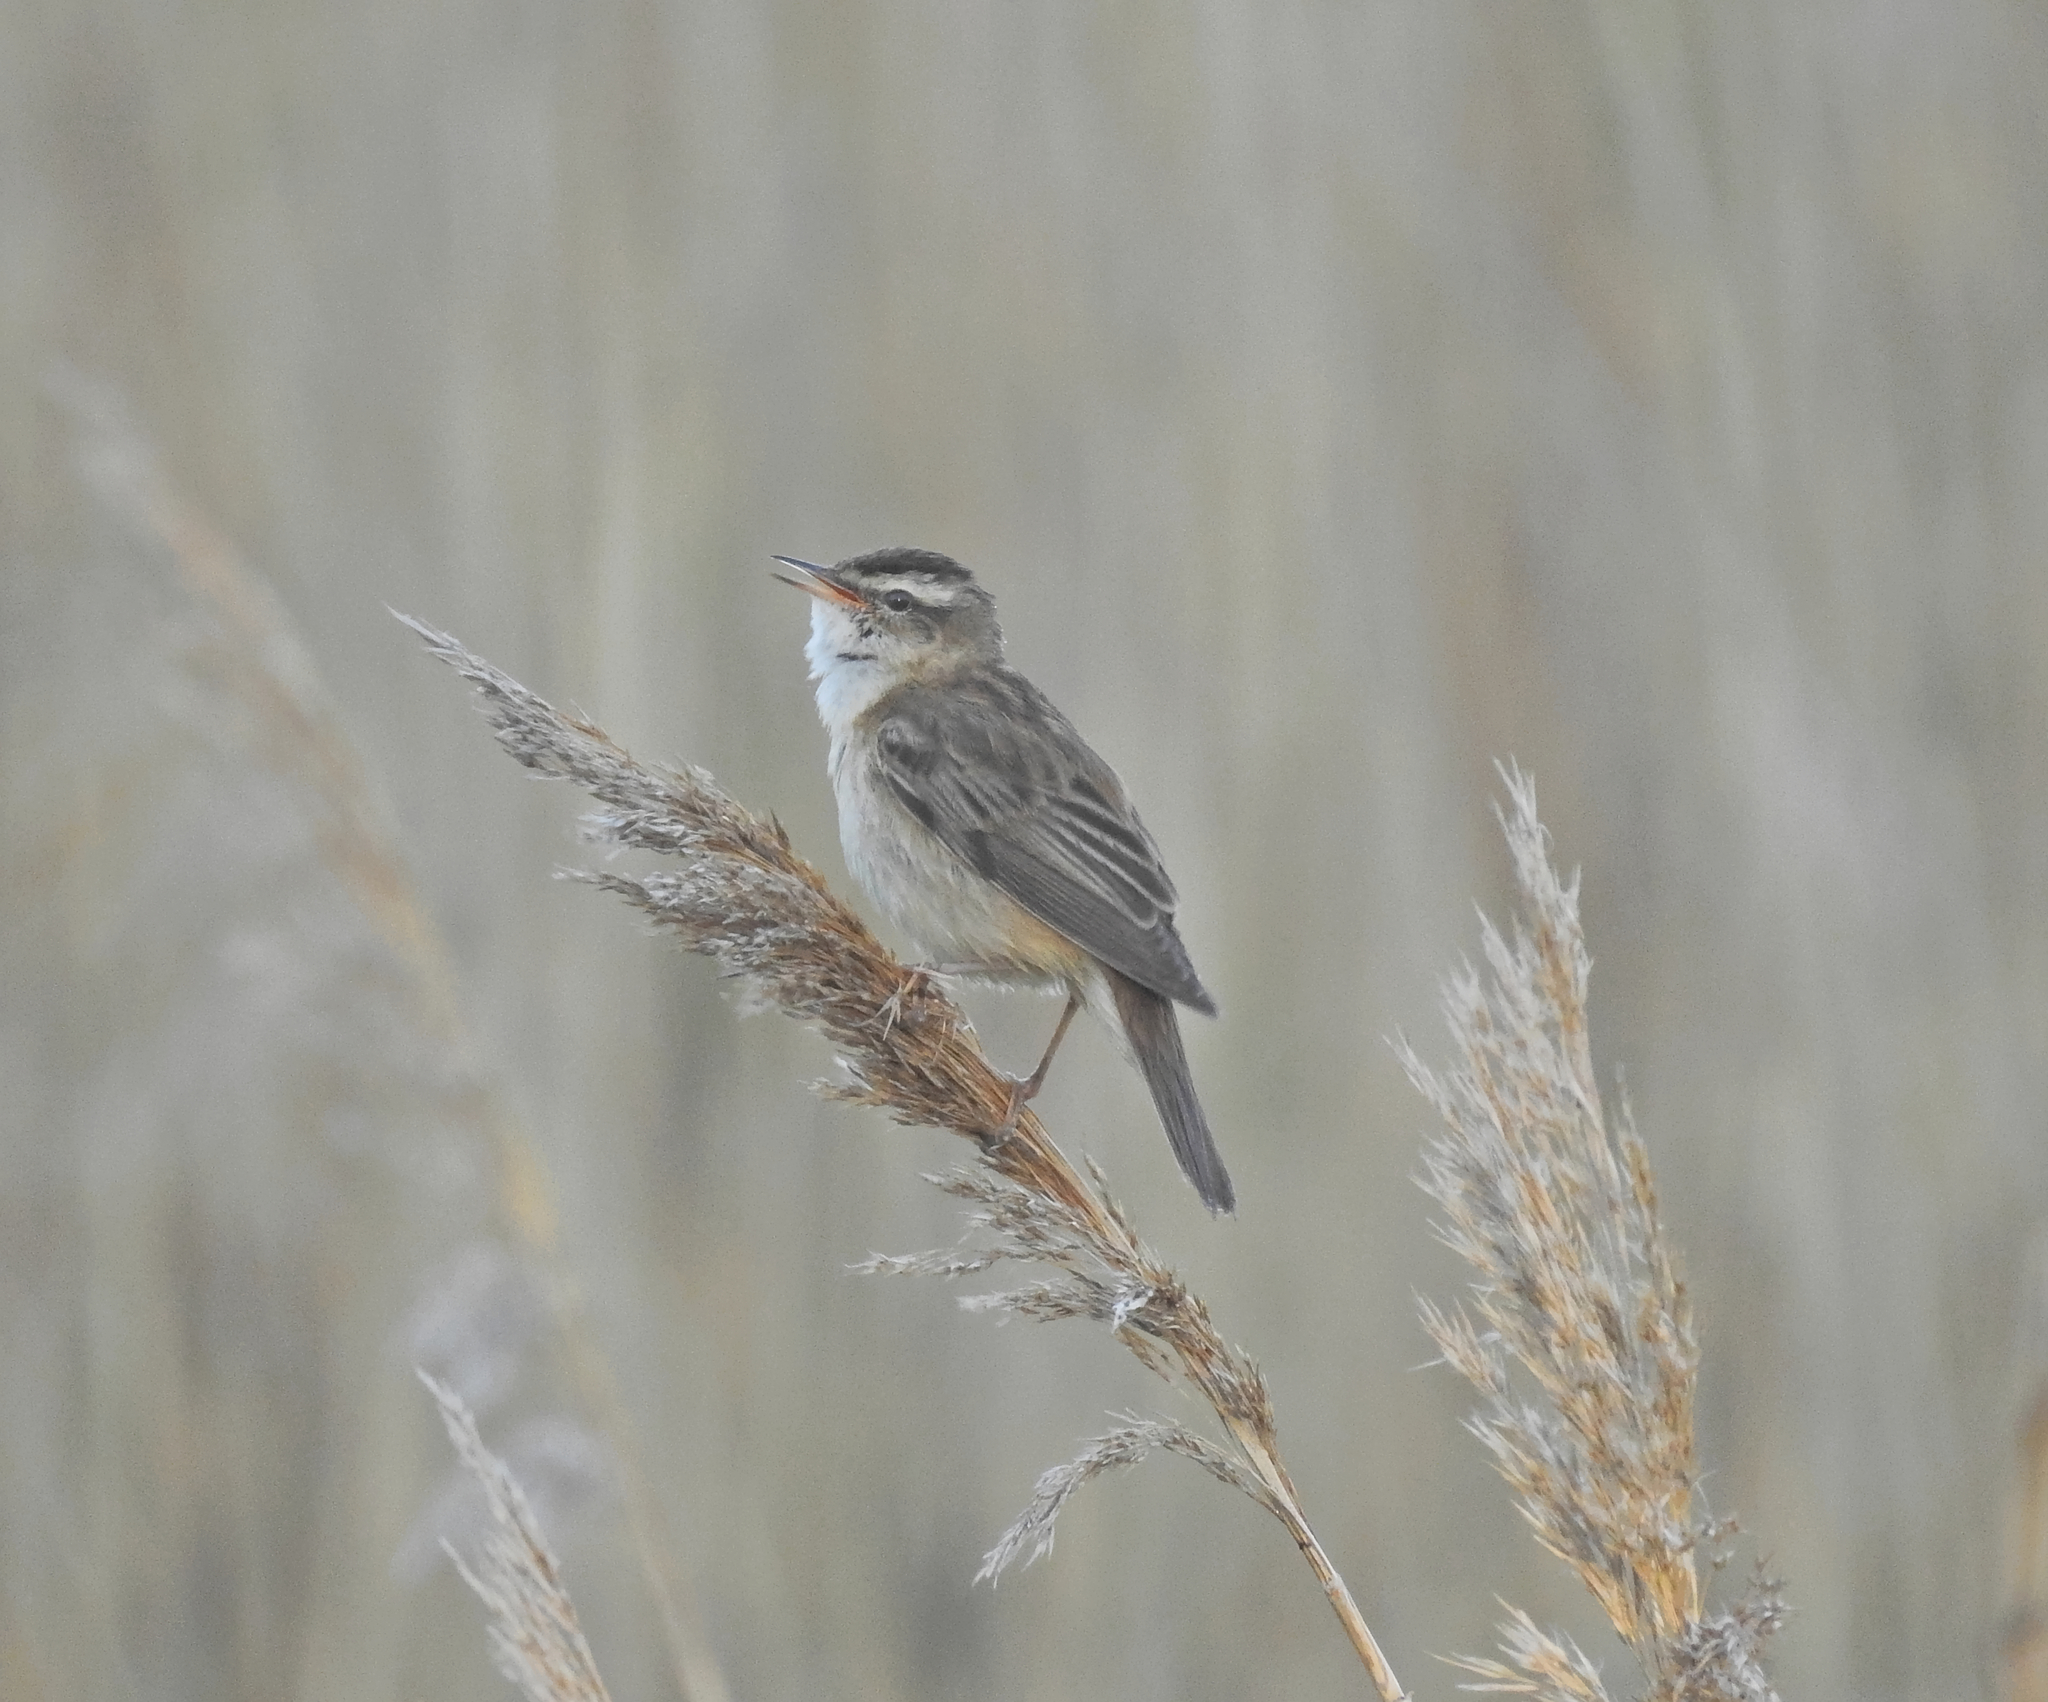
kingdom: Animalia
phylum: Chordata
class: Aves
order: Passeriformes
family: Acrocephalidae
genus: Acrocephalus
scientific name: Acrocephalus schoenobaenus
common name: Sedge warbler
